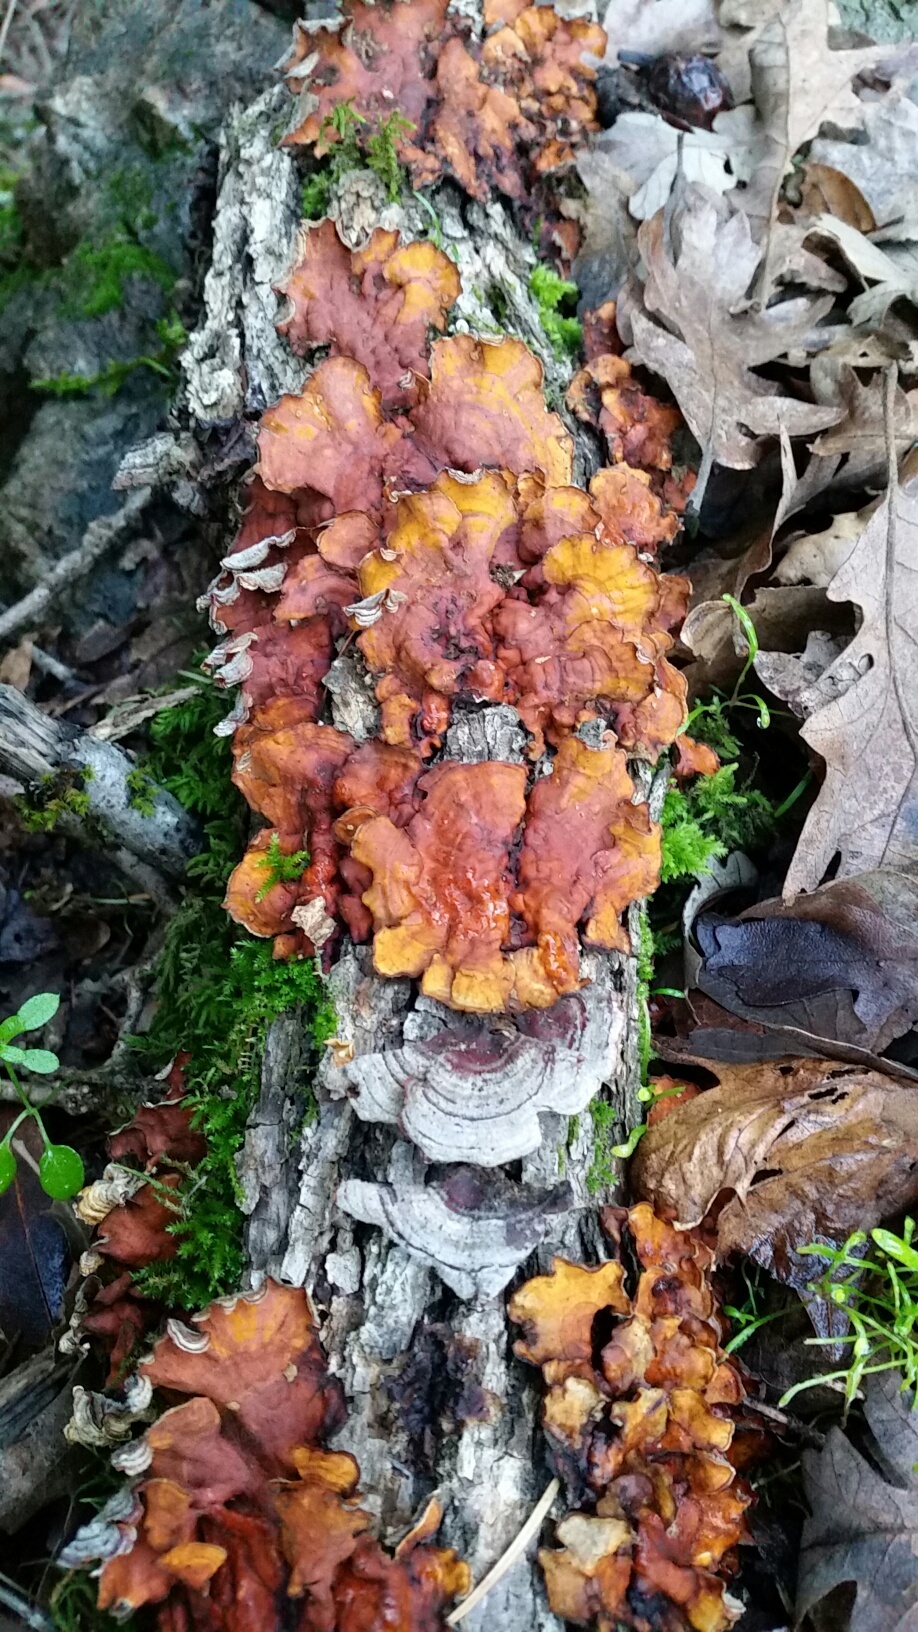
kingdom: Fungi
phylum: Basidiomycota
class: Agaricomycetes
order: Russulales
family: Stereaceae
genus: Stereum
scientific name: Stereum hirsutum
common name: Hairy curtain crust
